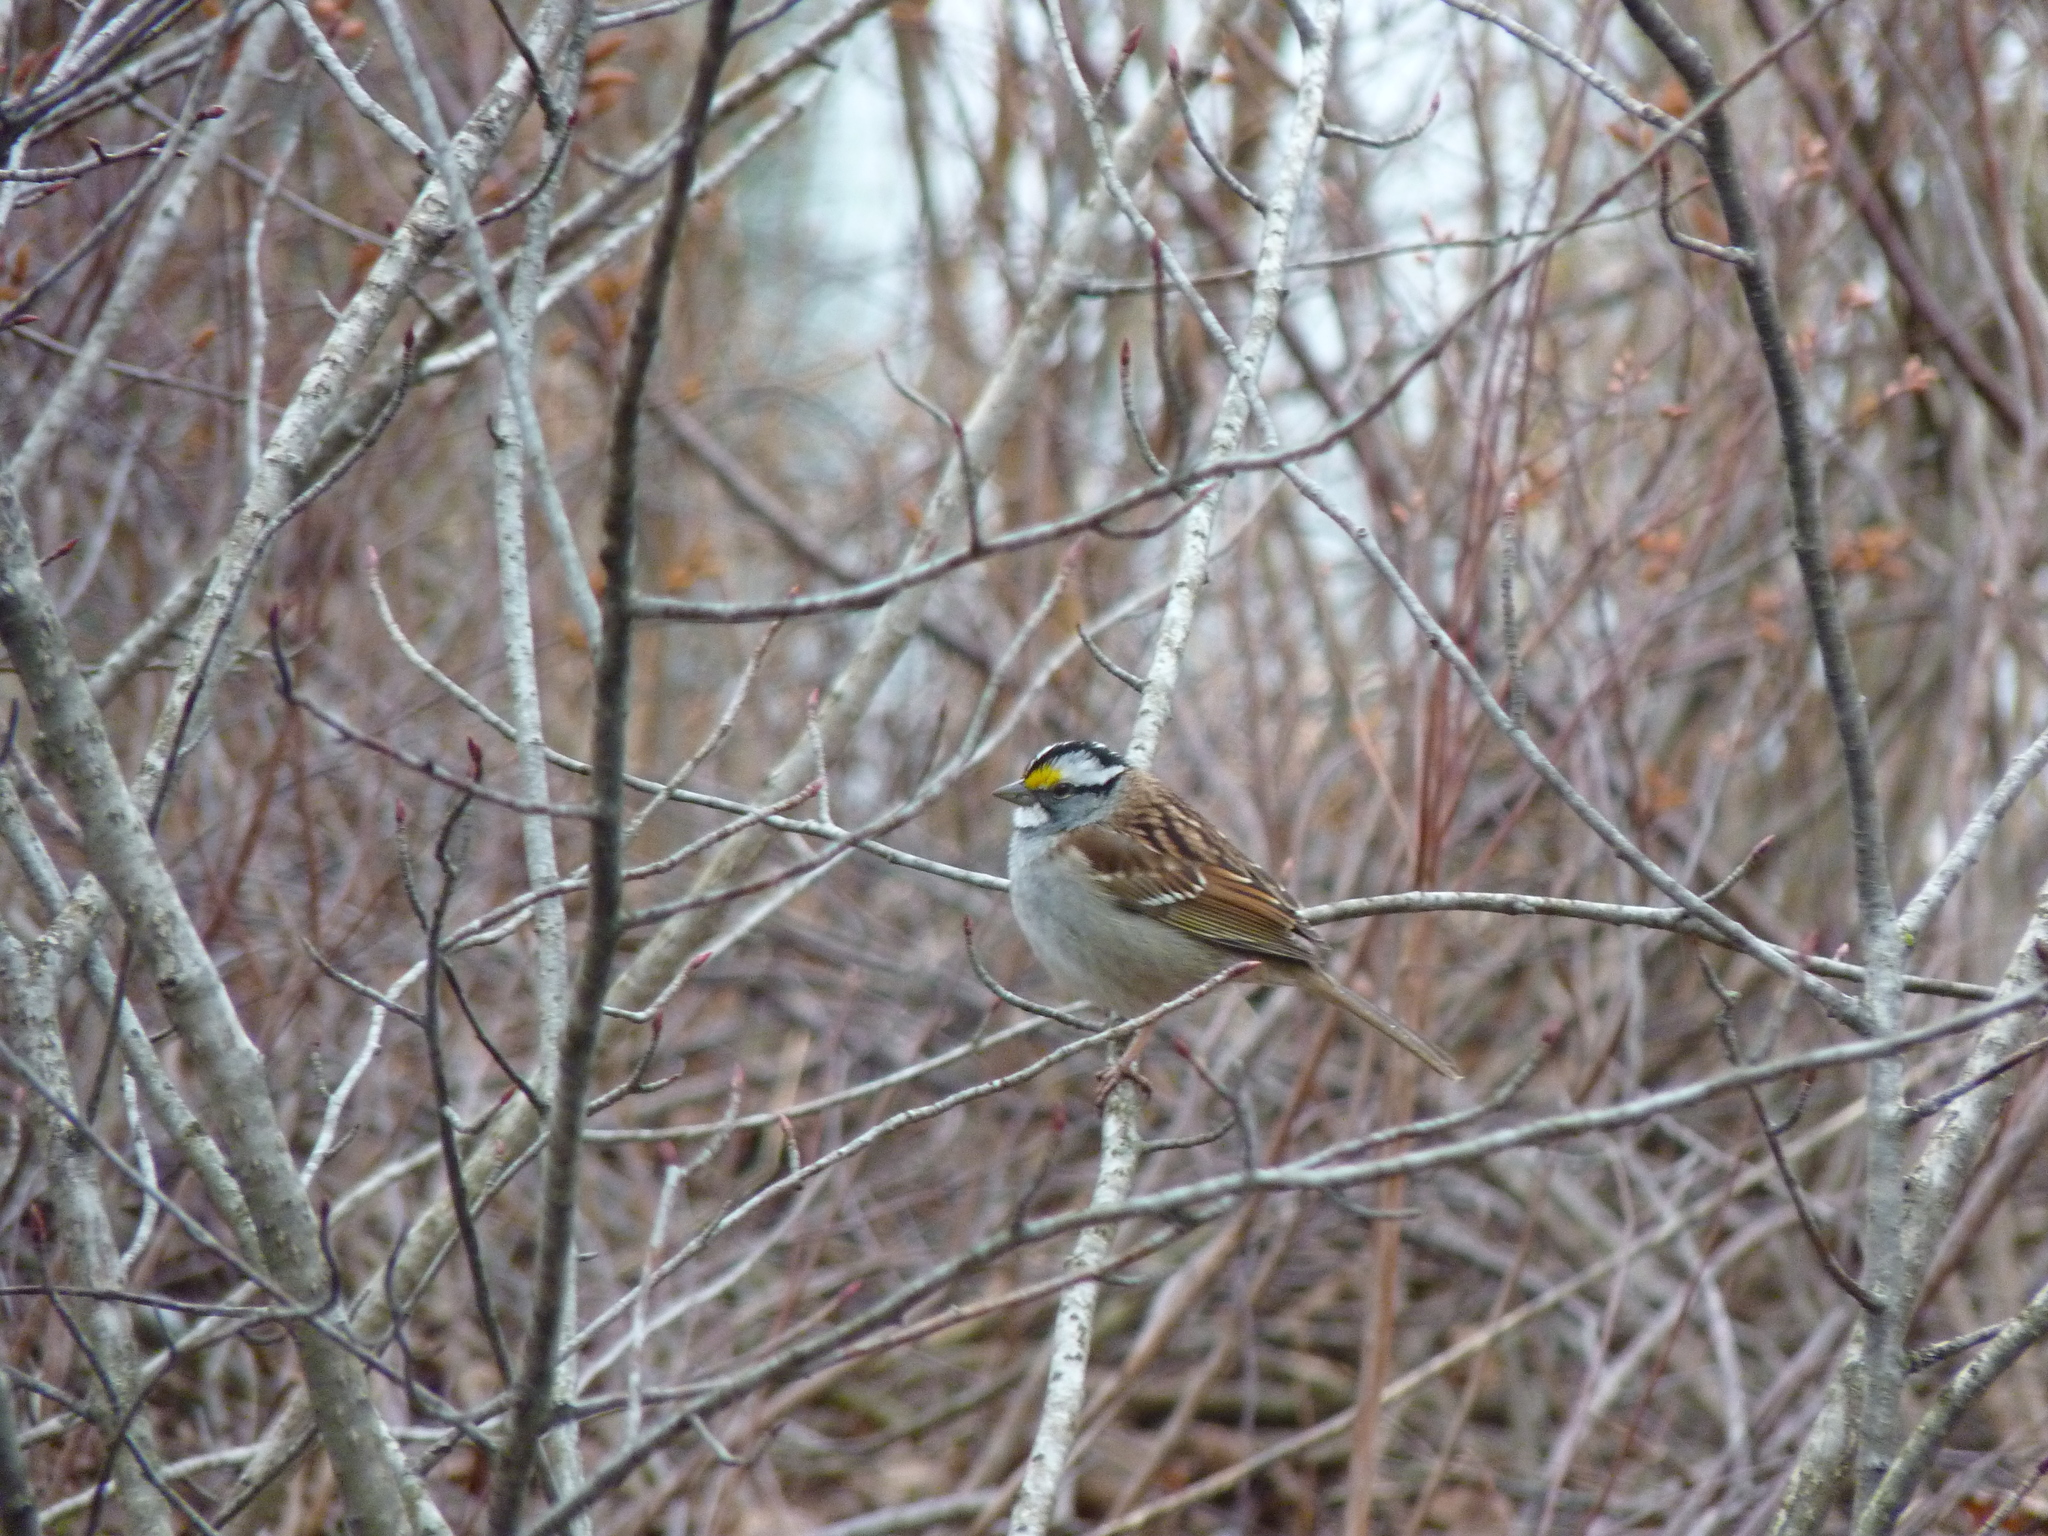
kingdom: Animalia
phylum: Chordata
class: Aves
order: Passeriformes
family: Passerellidae
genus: Zonotrichia
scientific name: Zonotrichia albicollis
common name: White-throated sparrow
